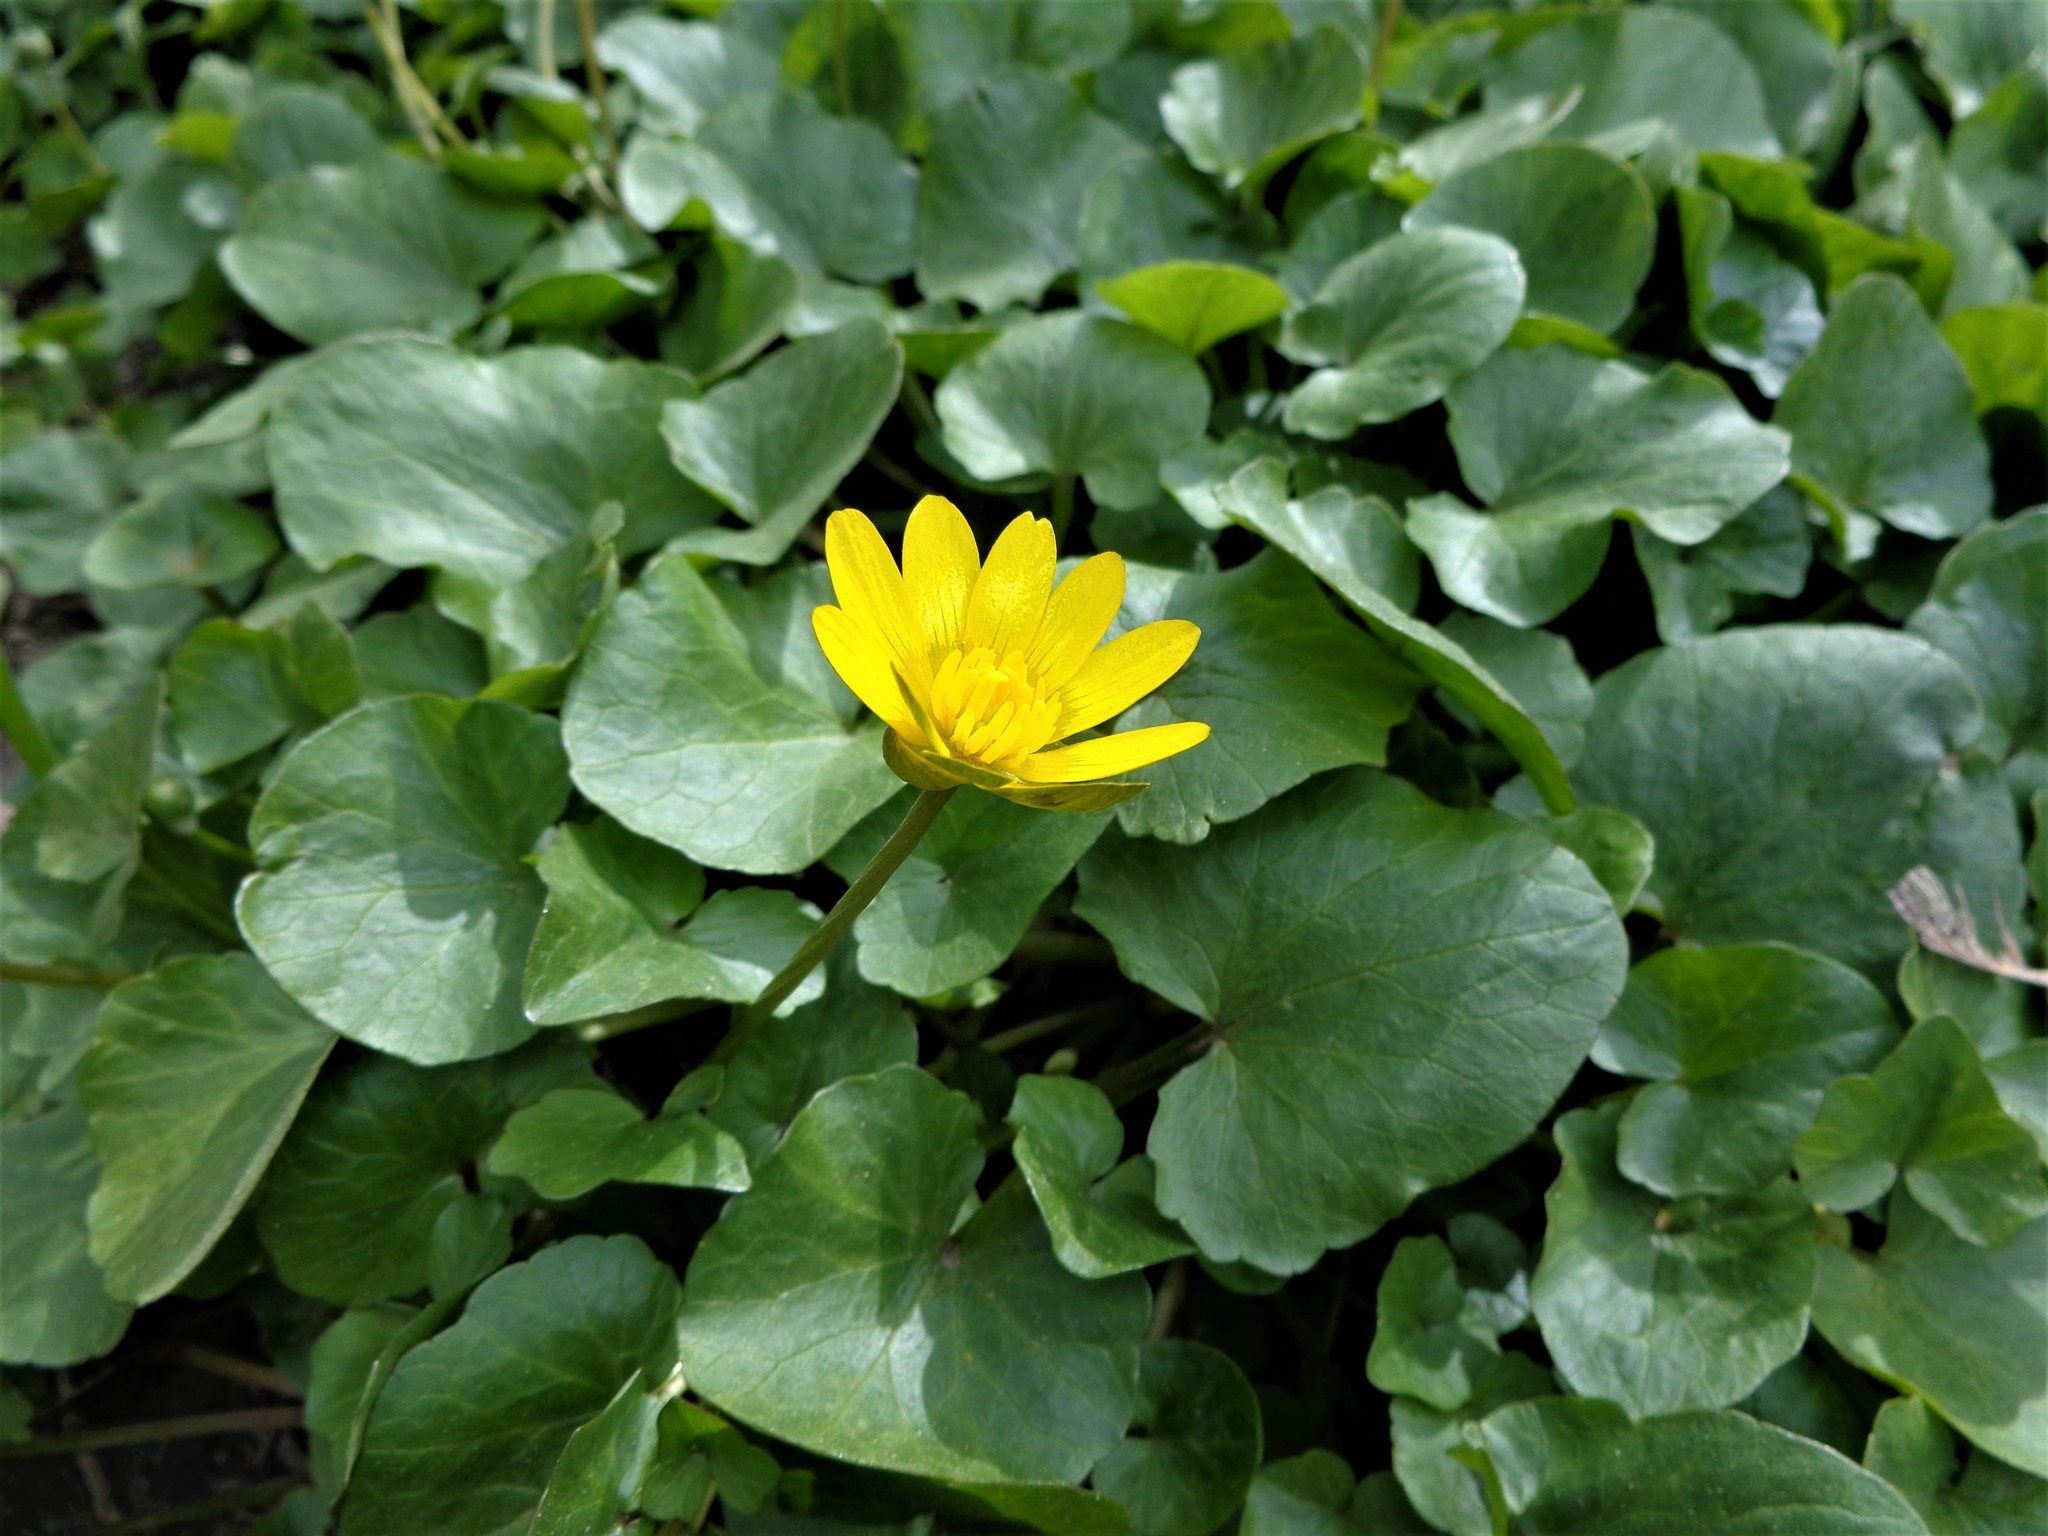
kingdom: Plantae
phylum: Tracheophyta
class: Magnoliopsida
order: Ranunculales
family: Ranunculaceae
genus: Ficaria
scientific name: Ficaria verna
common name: Lesser celandine
